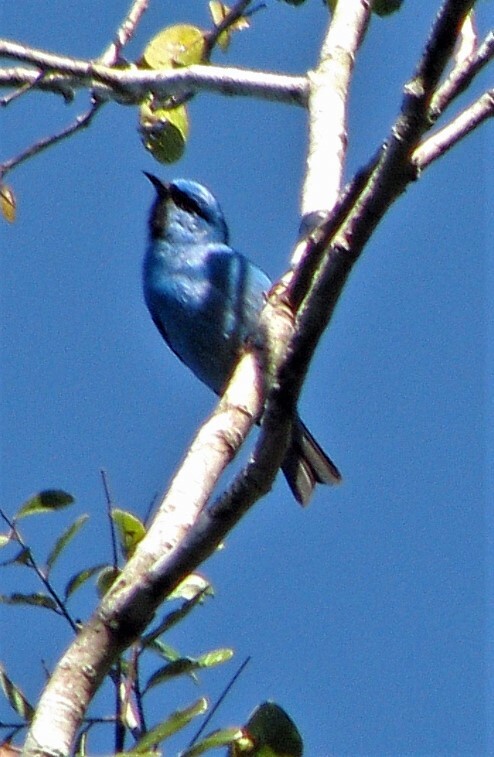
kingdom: Animalia
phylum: Chordata
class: Aves
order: Passeriformes
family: Thraupidae
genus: Dacnis
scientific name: Dacnis cayana
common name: Blue dacnis
